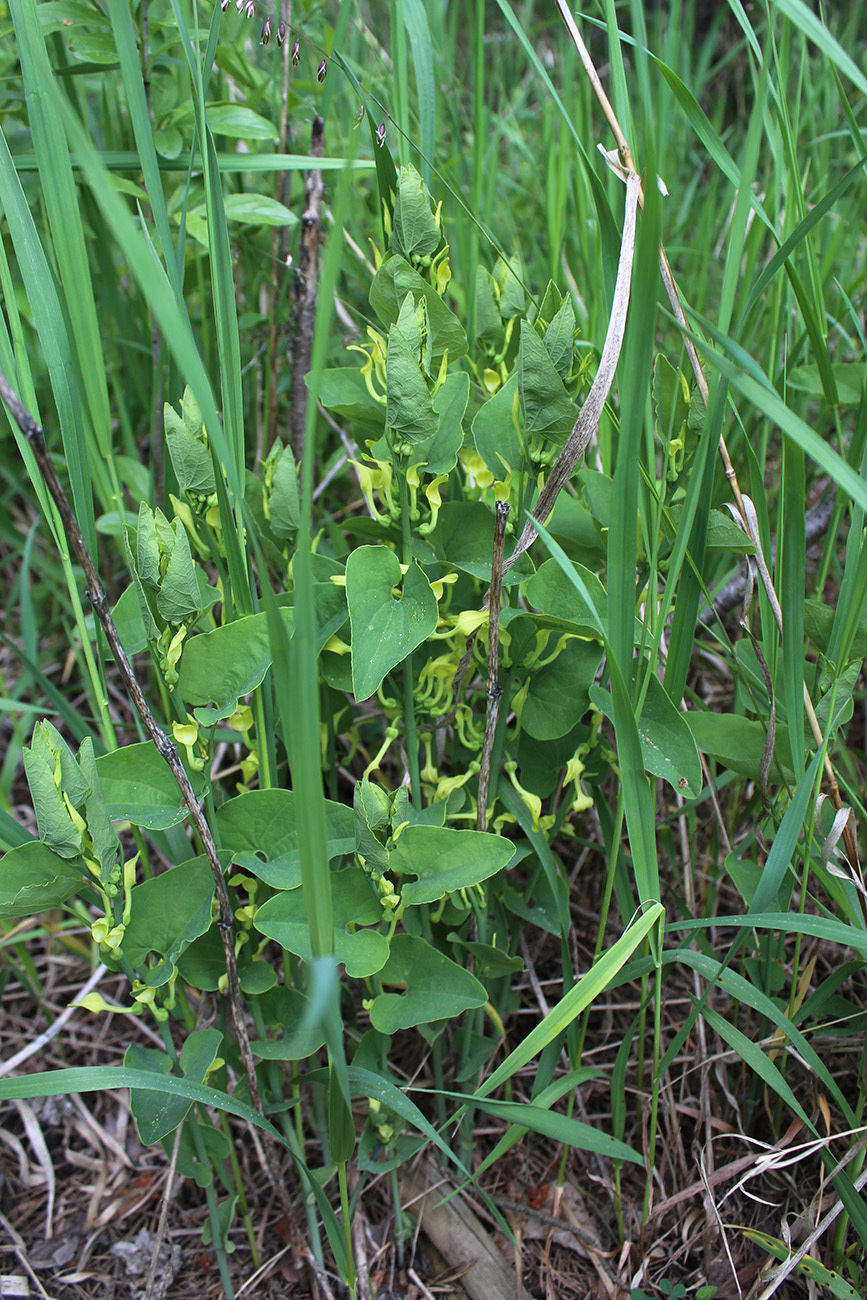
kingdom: Plantae
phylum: Tracheophyta
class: Magnoliopsida
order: Piperales
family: Aristolochiaceae
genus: Aristolochia
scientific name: Aristolochia clematitis
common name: Birthwort
